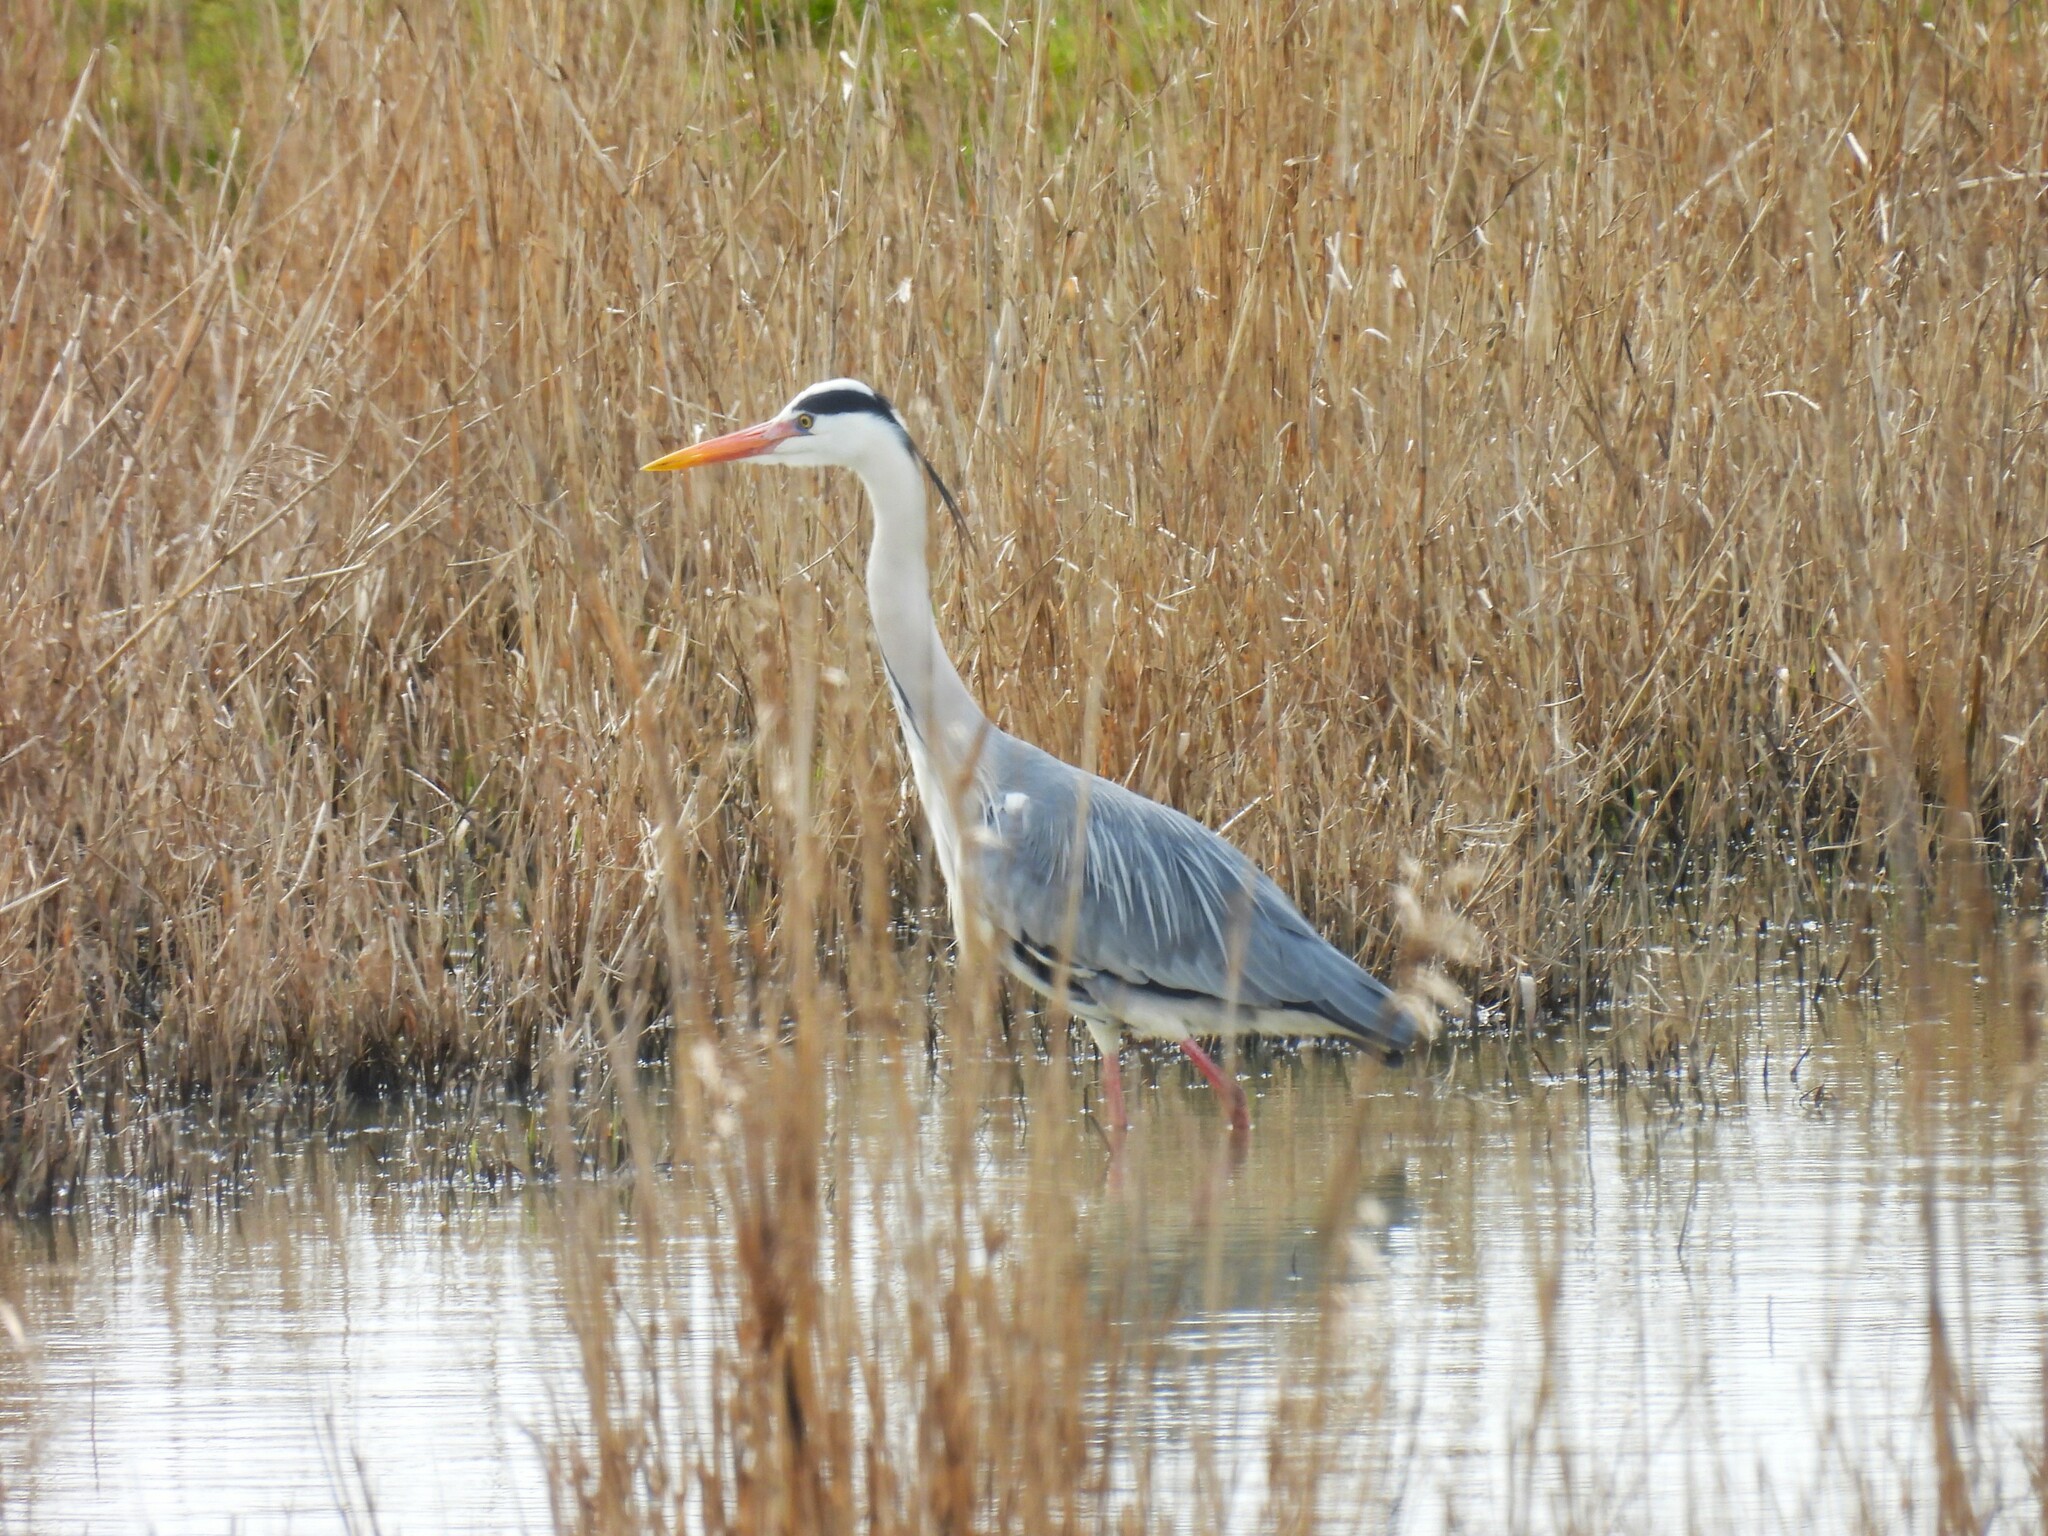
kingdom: Animalia
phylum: Chordata
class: Aves
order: Pelecaniformes
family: Ardeidae
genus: Ardea
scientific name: Ardea cinerea
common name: Grey heron
